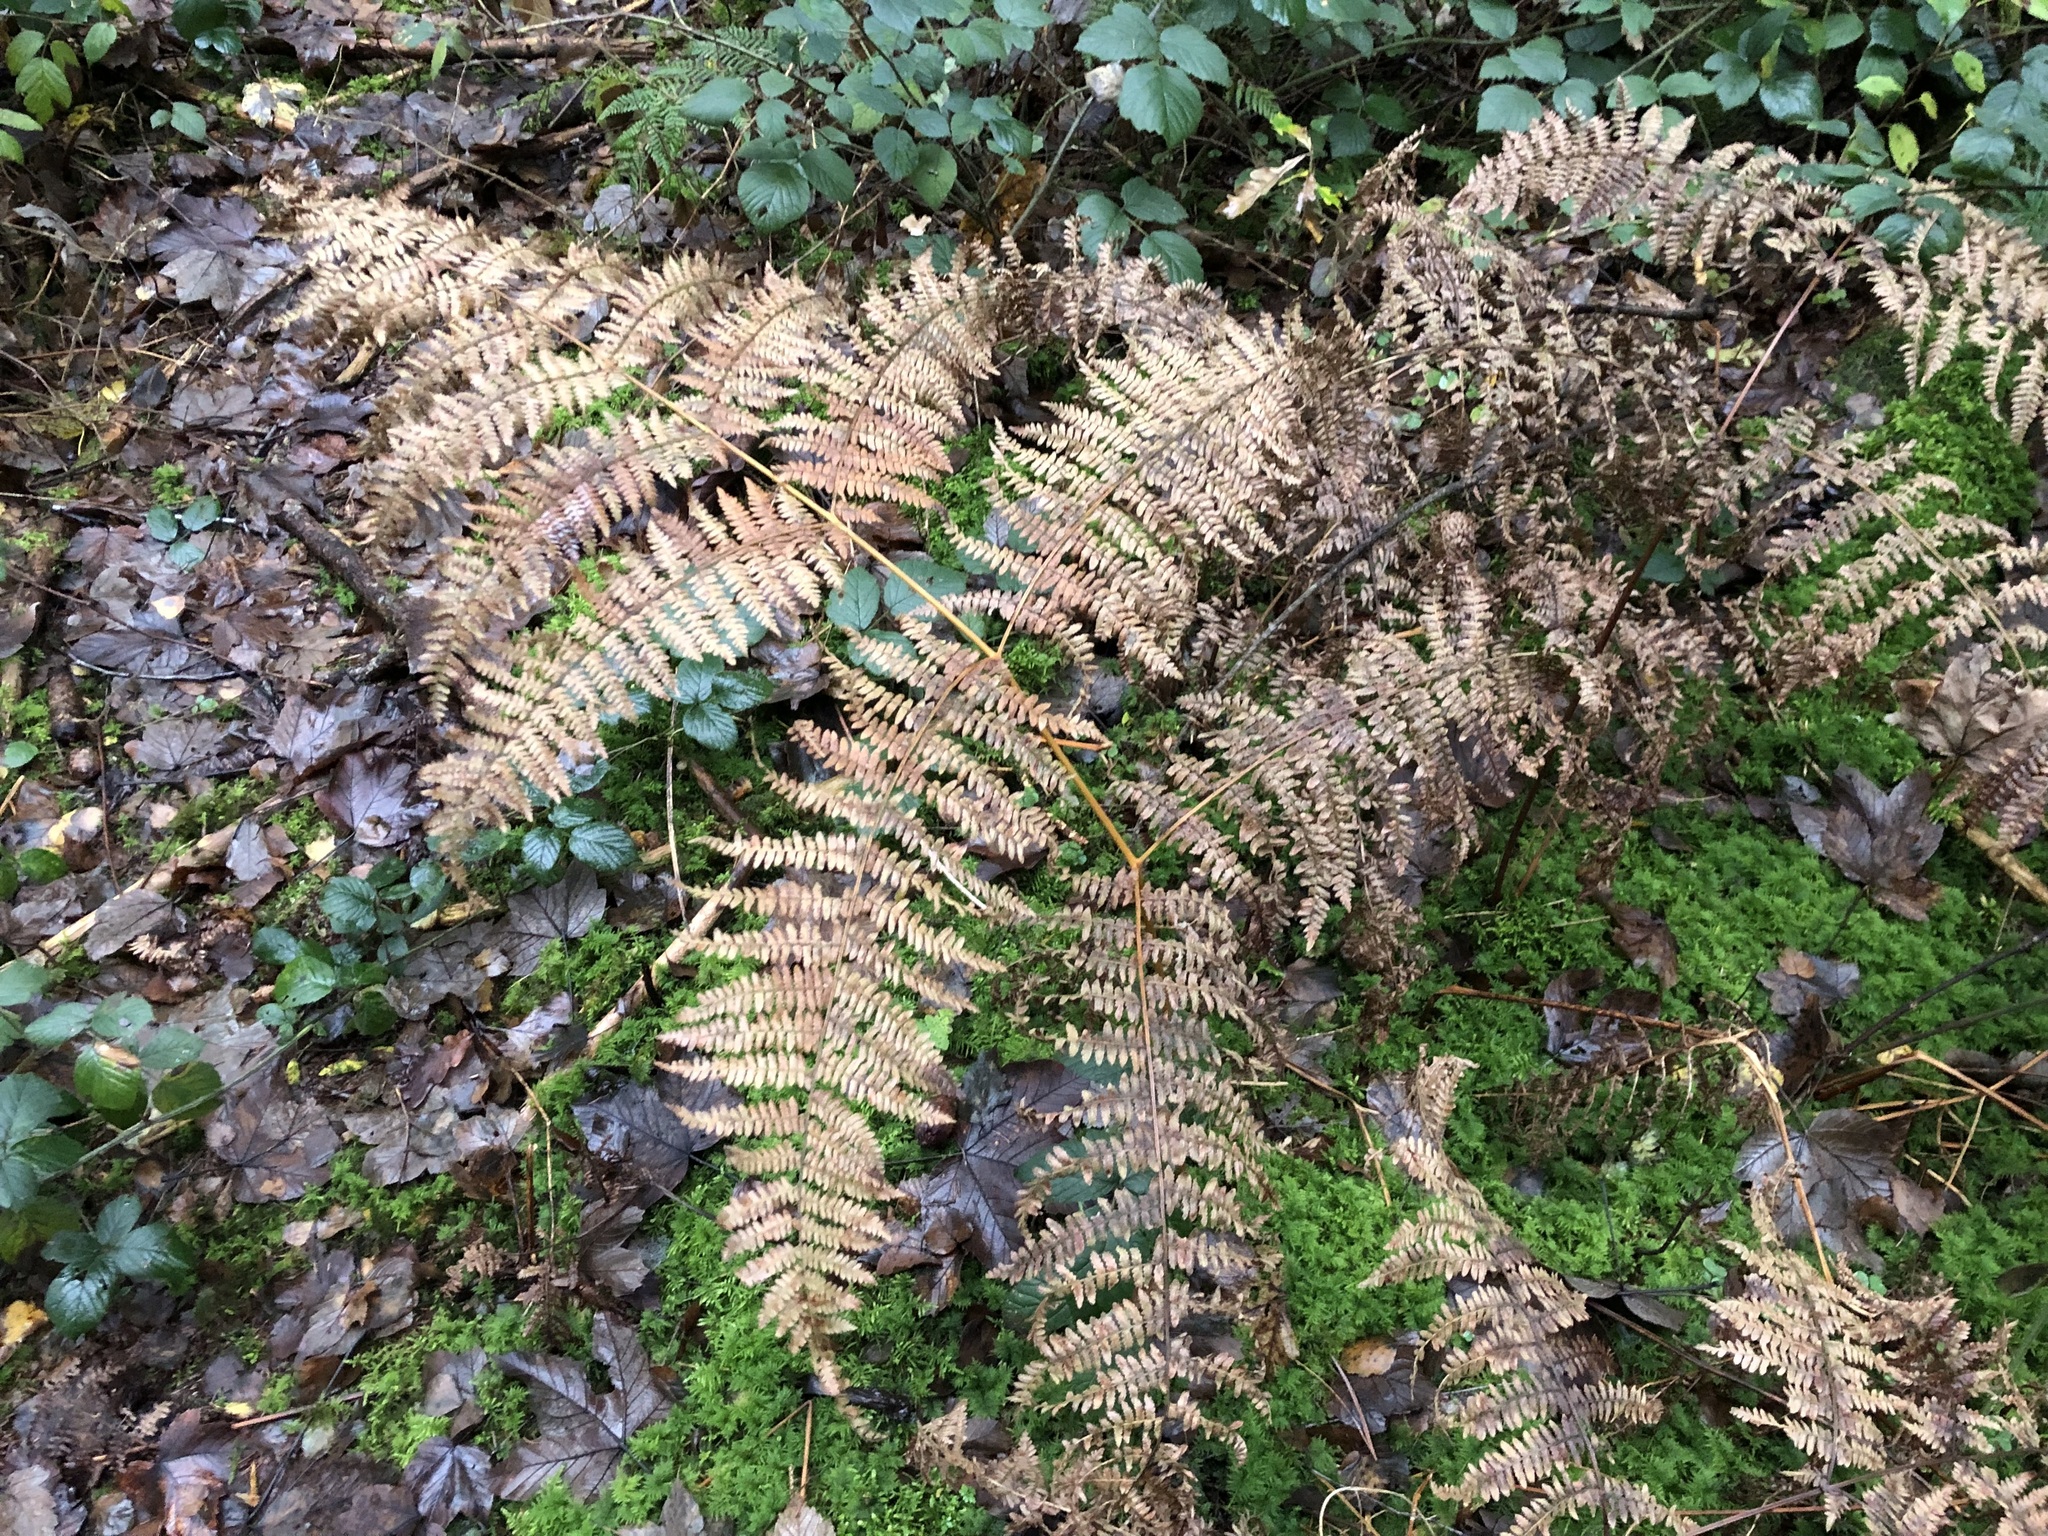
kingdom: Plantae
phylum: Tracheophyta
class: Polypodiopsida
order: Polypodiales
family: Dennstaedtiaceae
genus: Pteridium
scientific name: Pteridium aquilinum
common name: Bracken
